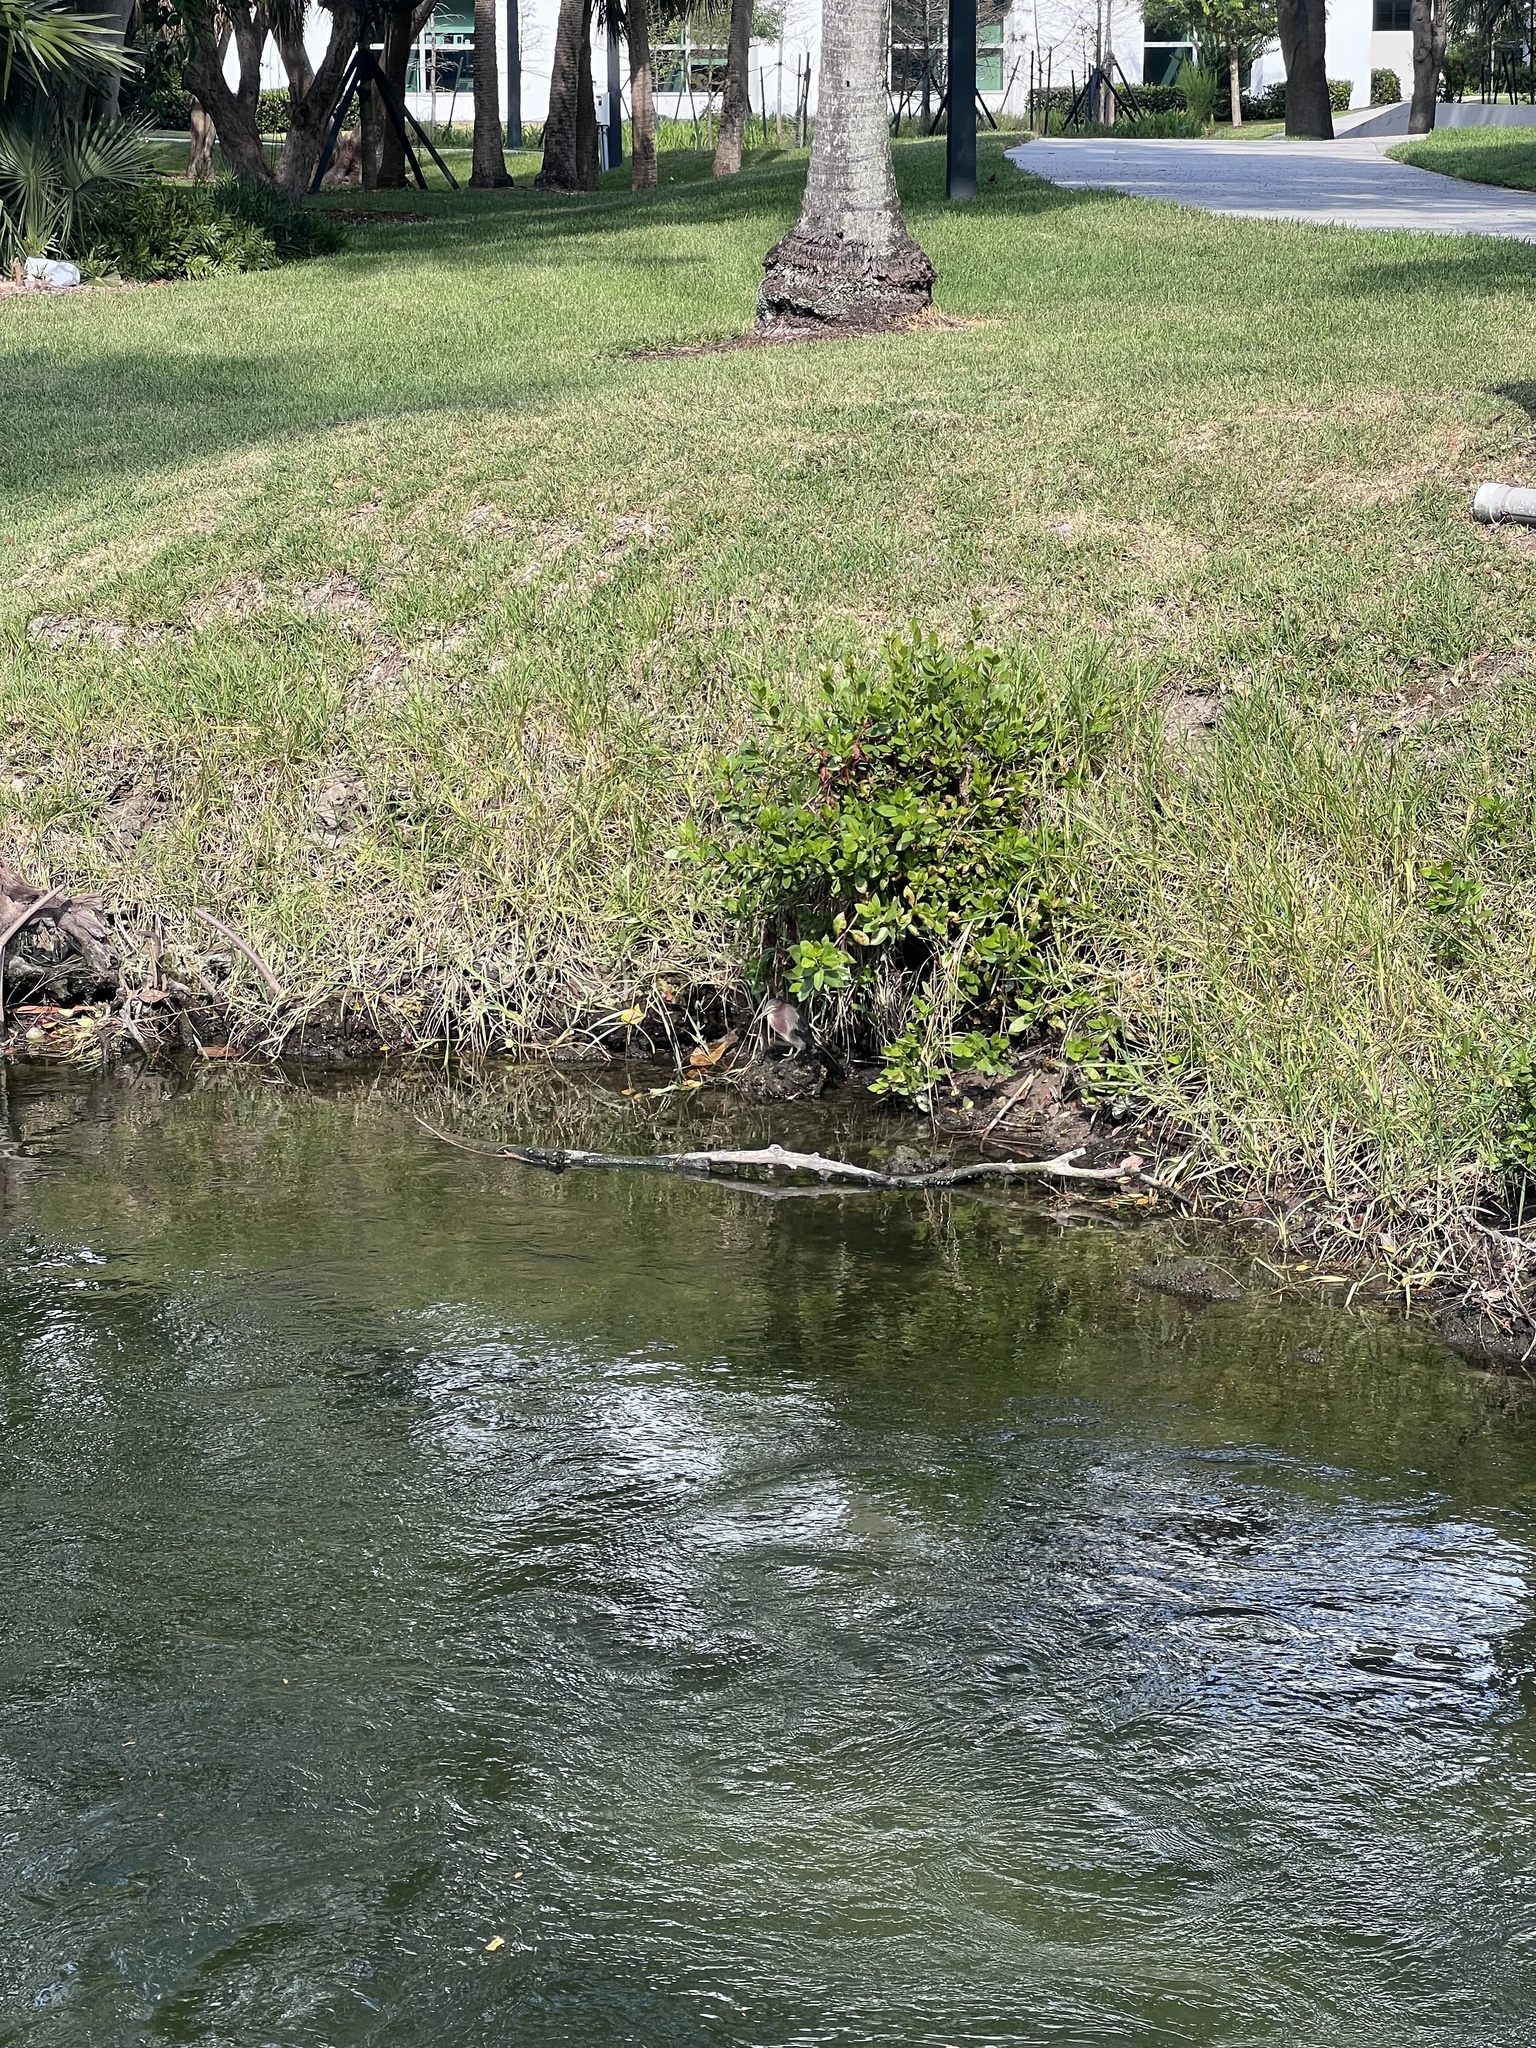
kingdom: Animalia
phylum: Chordata
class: Aves
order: Pelecaniformes
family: Ardeidae
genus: Butorides
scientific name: Butorides virescens
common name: Green heron
